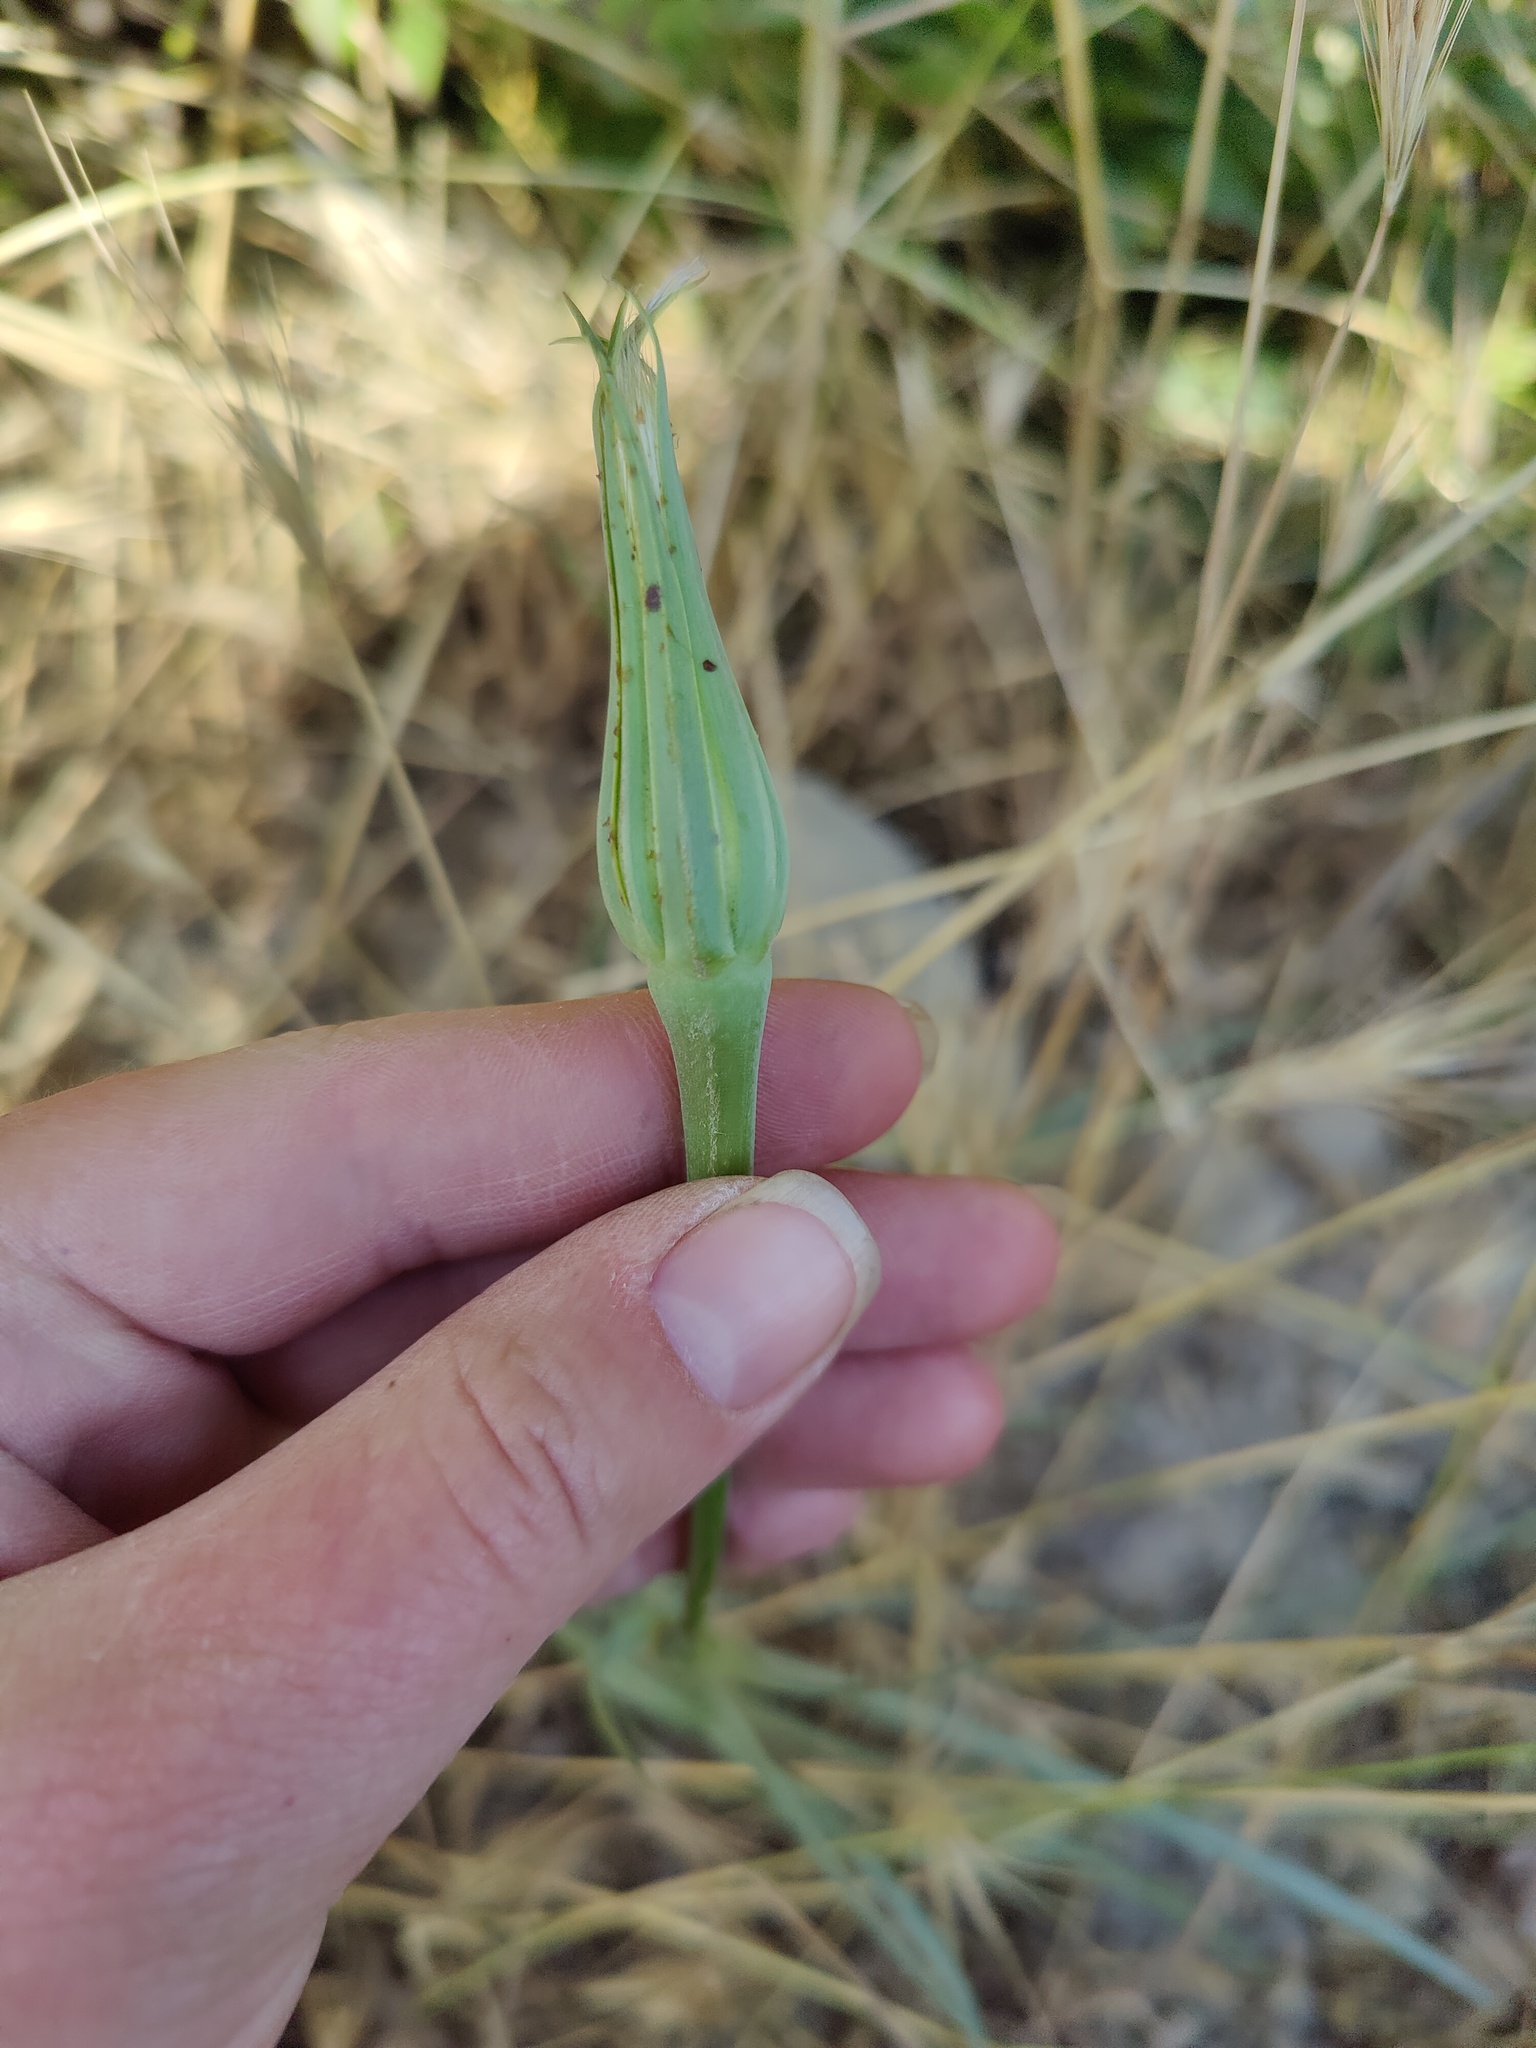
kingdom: Plantae
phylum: Tracheophyta
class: Magnoliopsida
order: Asterales
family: Asteraceae
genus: Tragopogon
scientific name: Tragopogon dubius
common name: Yellow salsify
